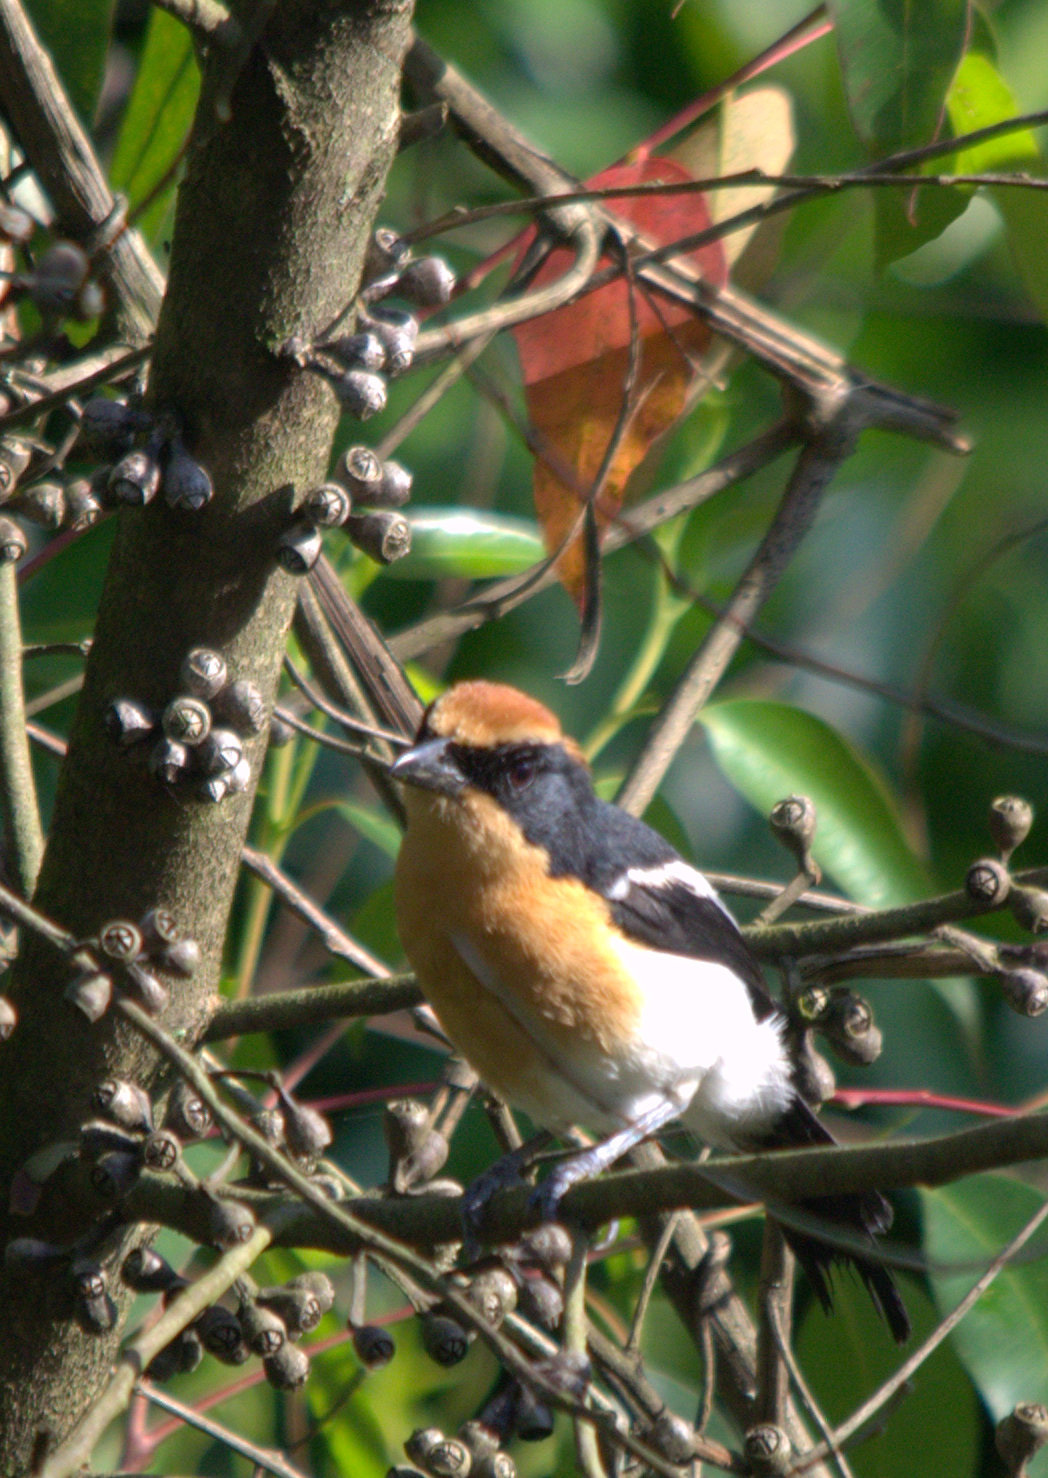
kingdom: Animalia
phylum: Chordata
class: Aves
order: Passeriformes
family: Malaconotidae
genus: Laniarius
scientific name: Laniarius luehderi
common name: Lühder's bushshrike
